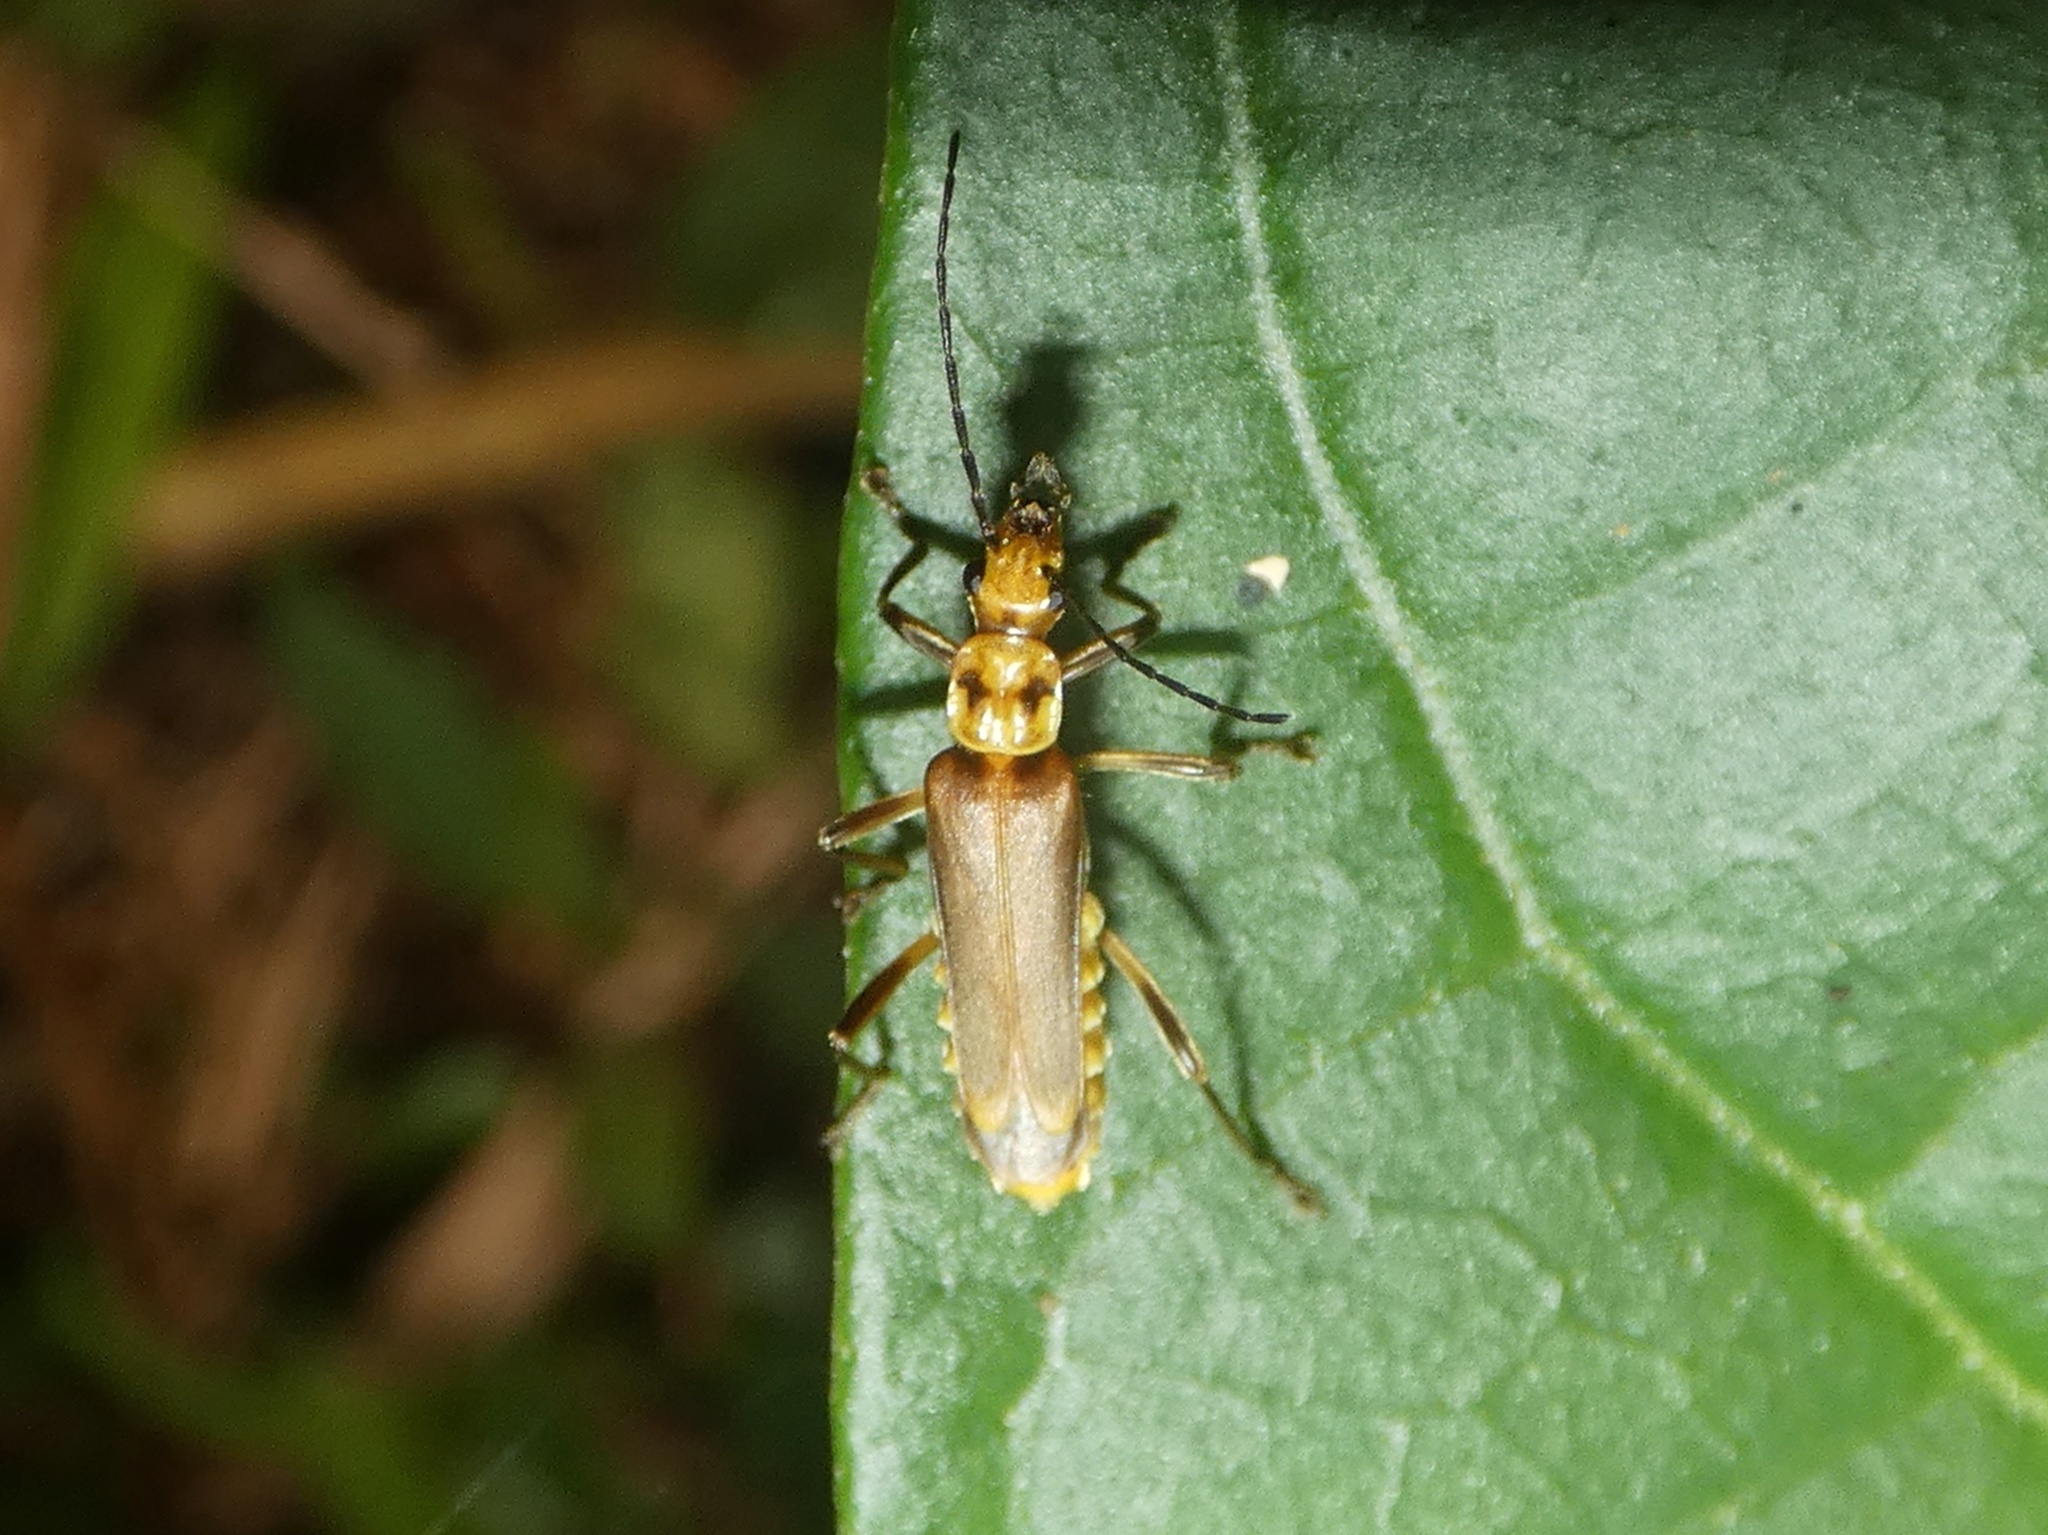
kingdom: Animalia
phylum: Arthropoda
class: Insecta
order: Coleoptera
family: Cantharidae
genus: Chauliognathus
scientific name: Chauliognathus
